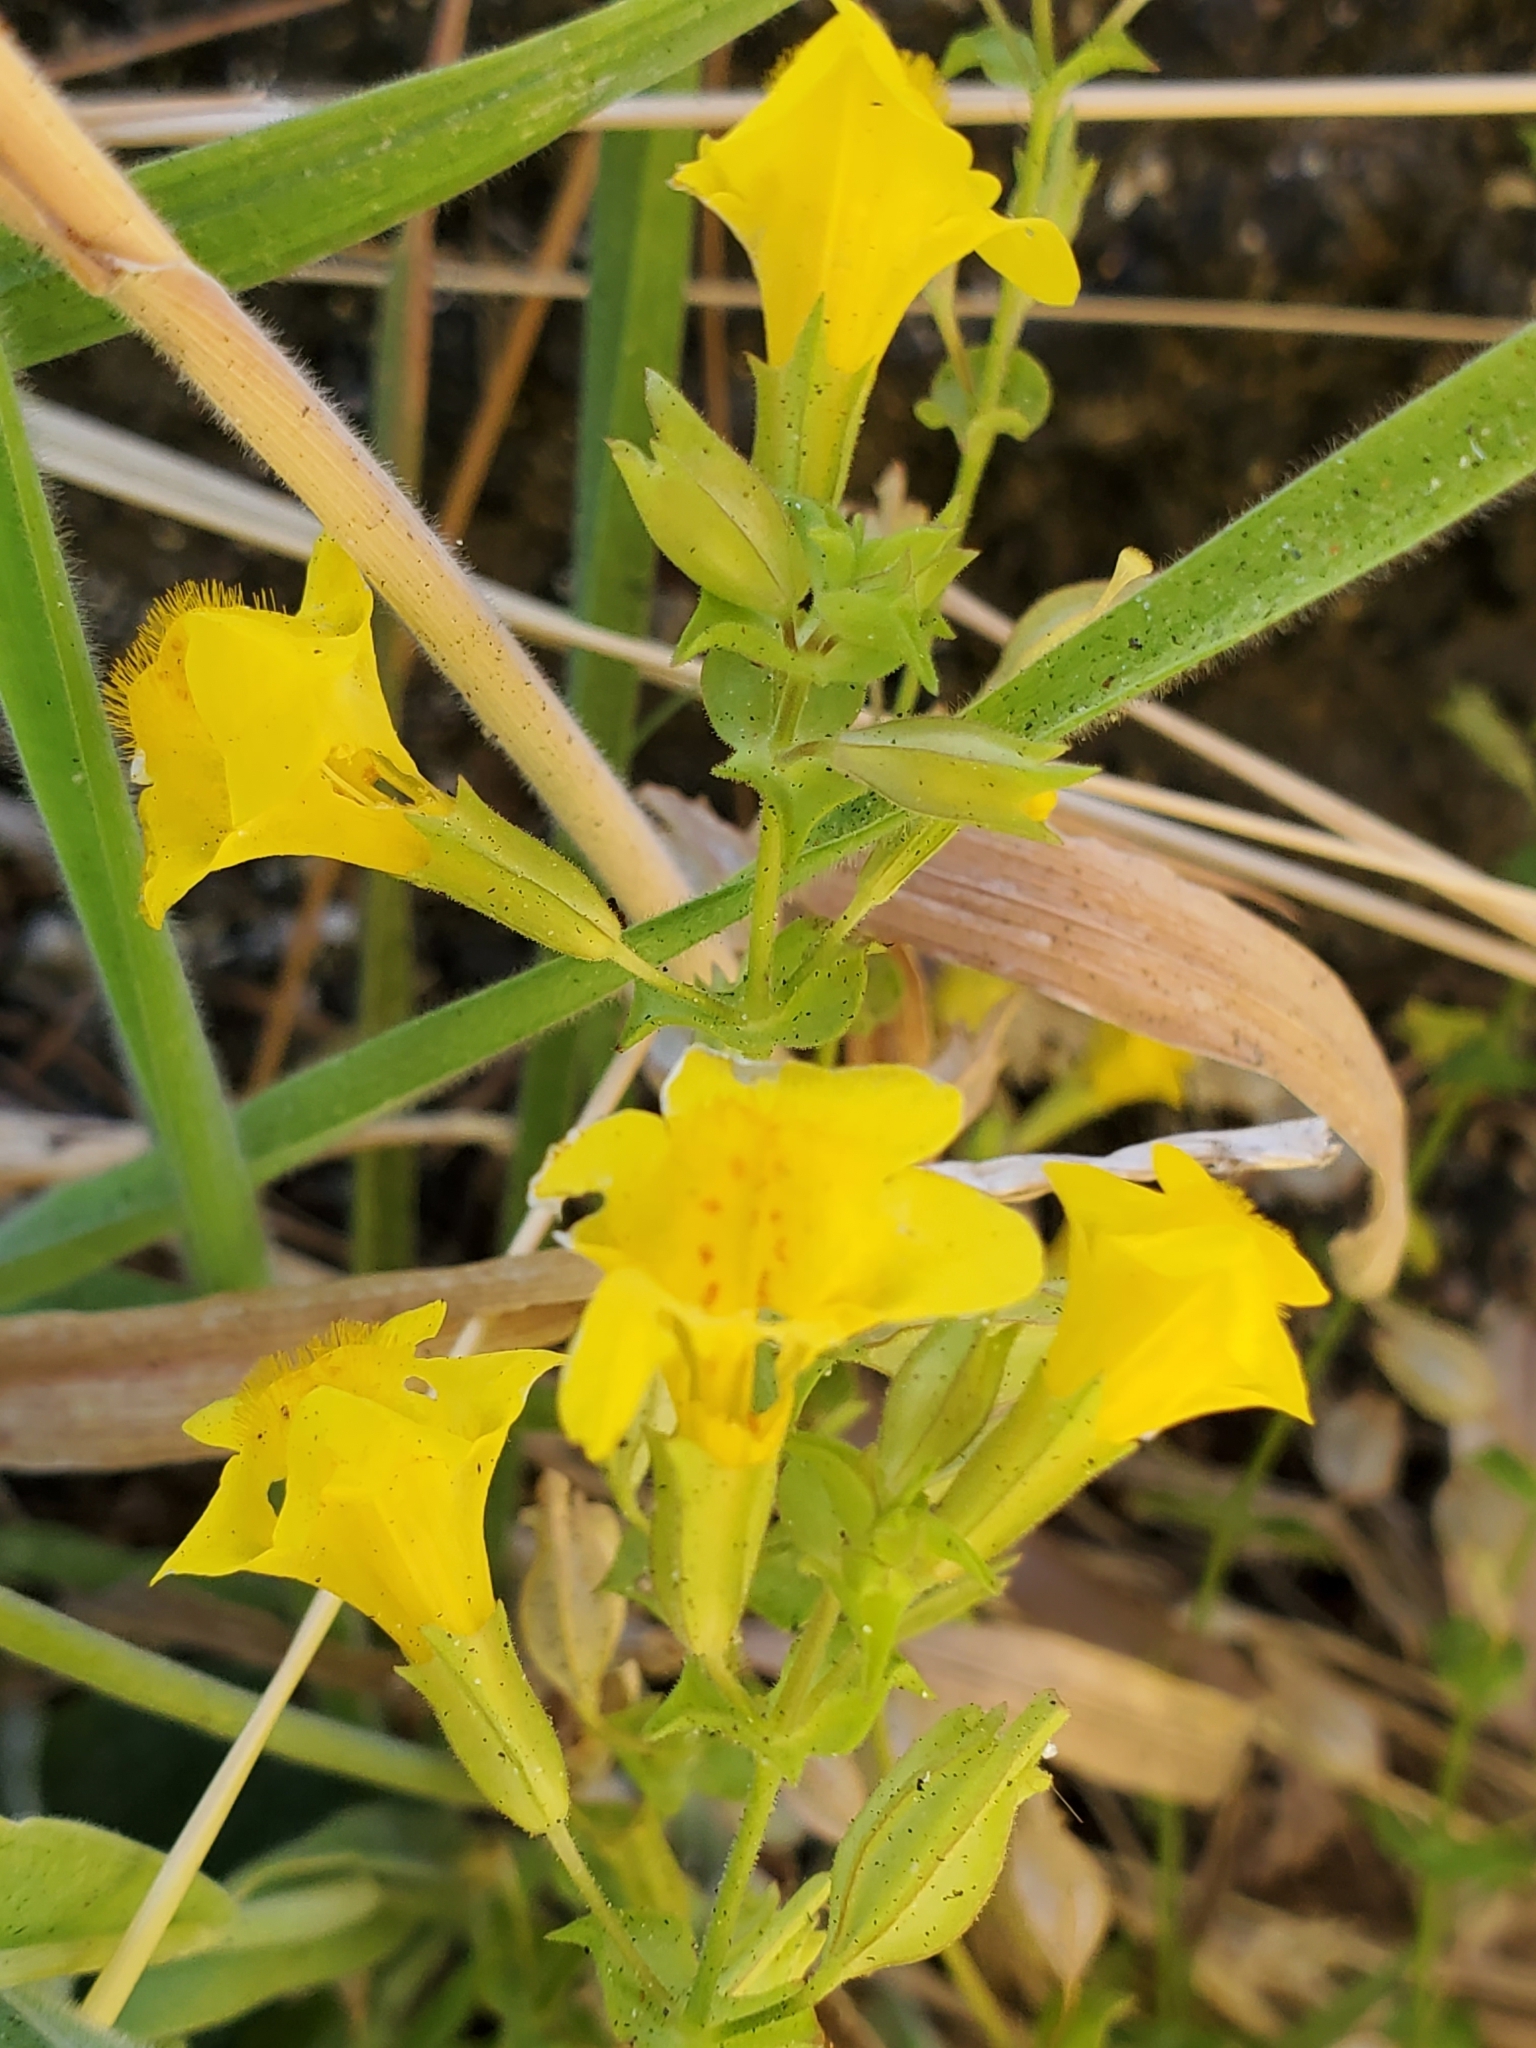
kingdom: Plantae
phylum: Tracheophyta
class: Magnoliopsida
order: Lamiales
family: Phrymaceae
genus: Erythranthe
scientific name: Erythranthe guttata
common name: Monkeyflower
